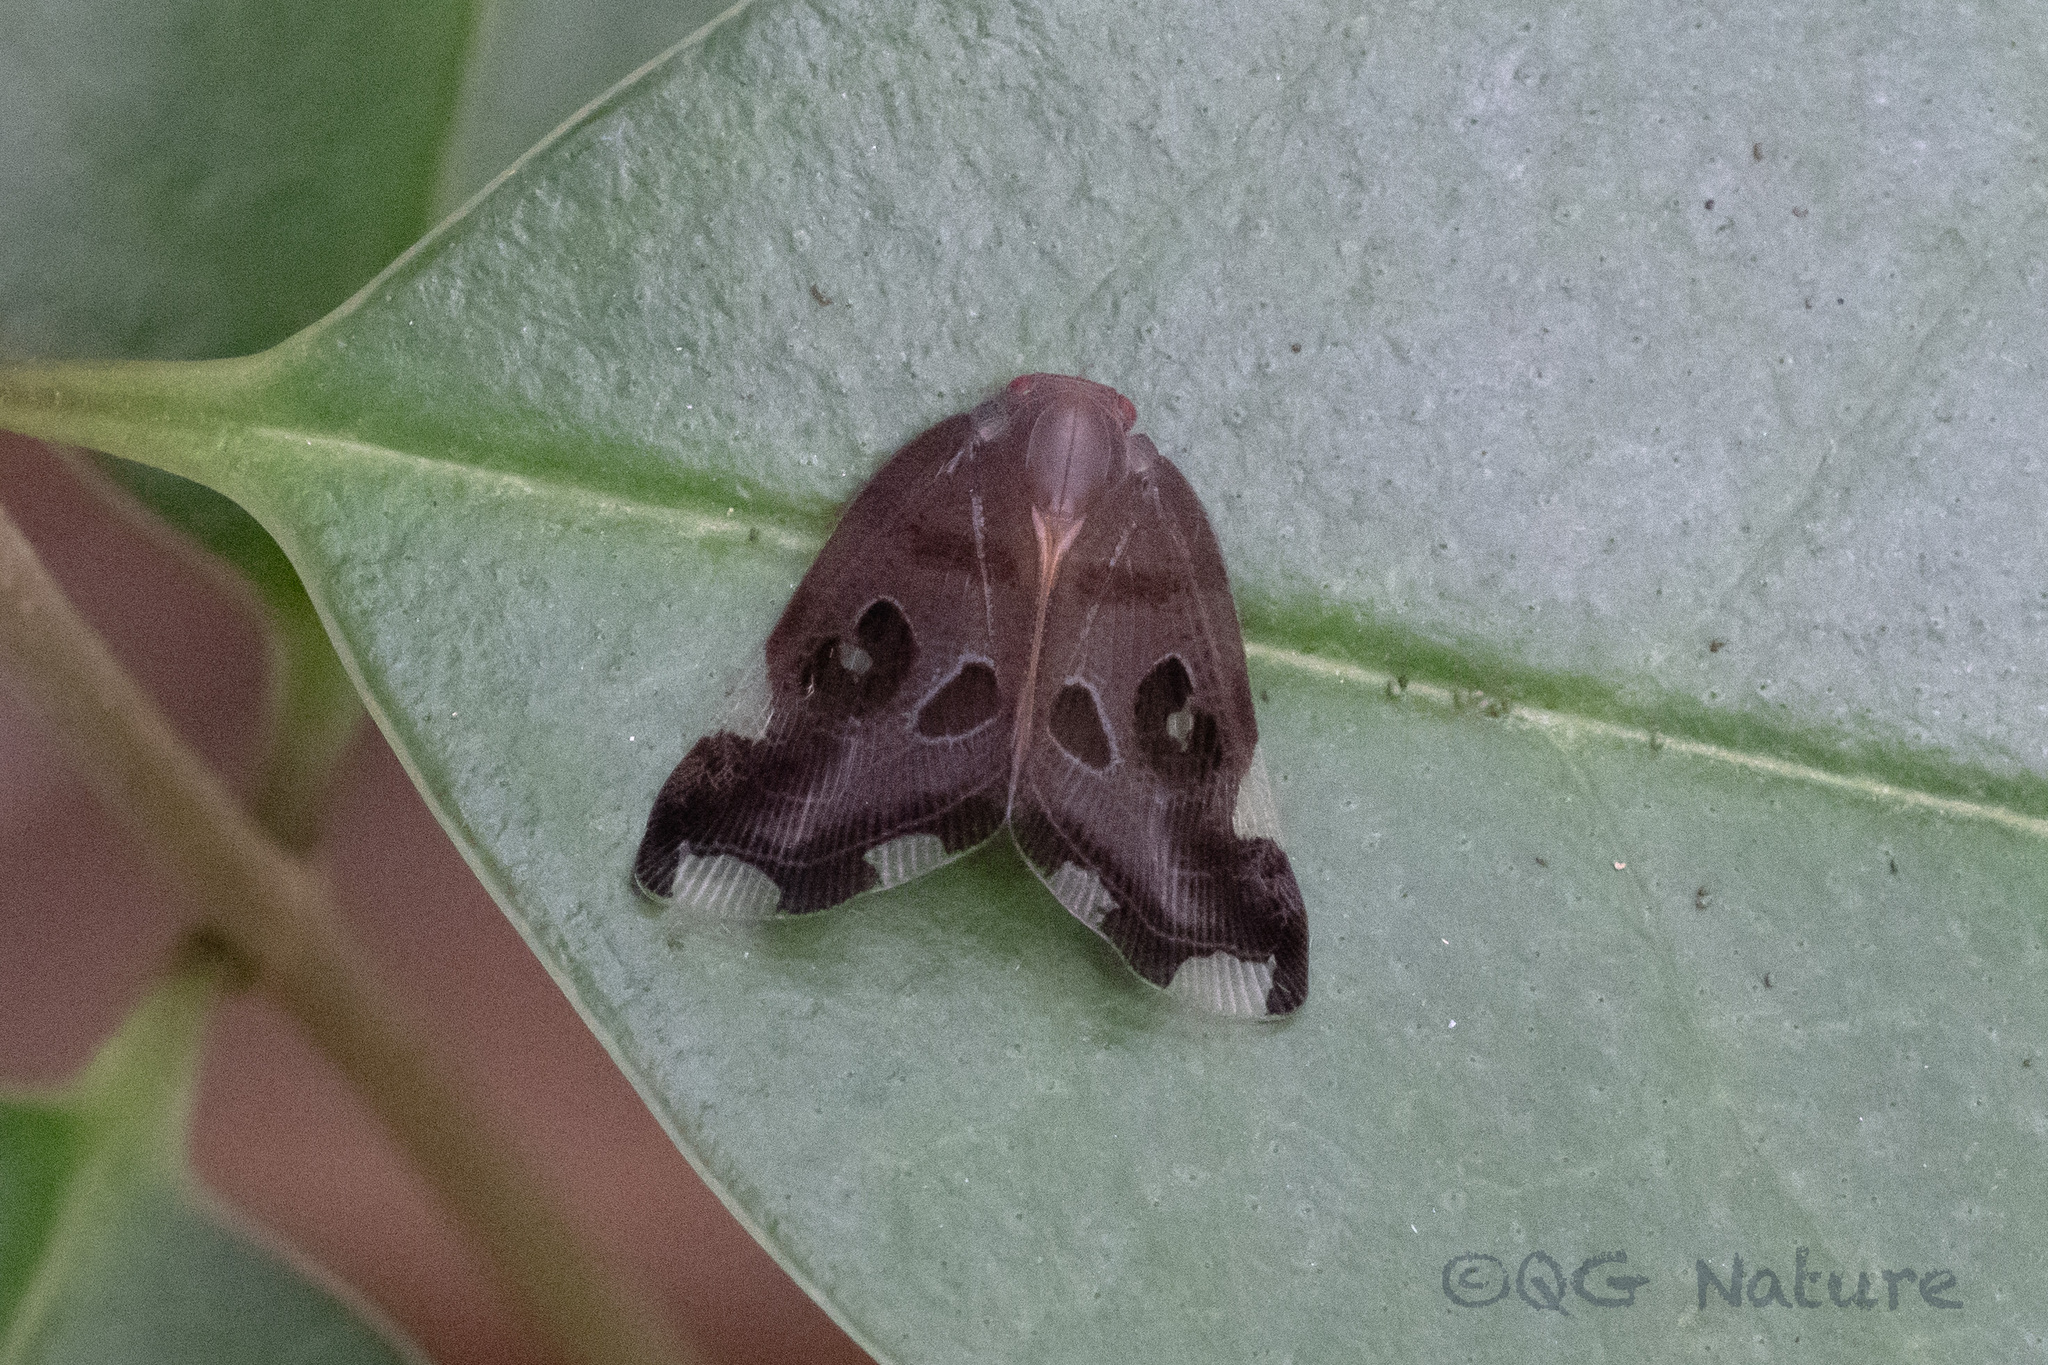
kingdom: Animalia
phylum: Arthropoda
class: Insecta
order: Hemiptera
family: Ricaniidae
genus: Pochazia
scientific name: Pochazia guttifera
